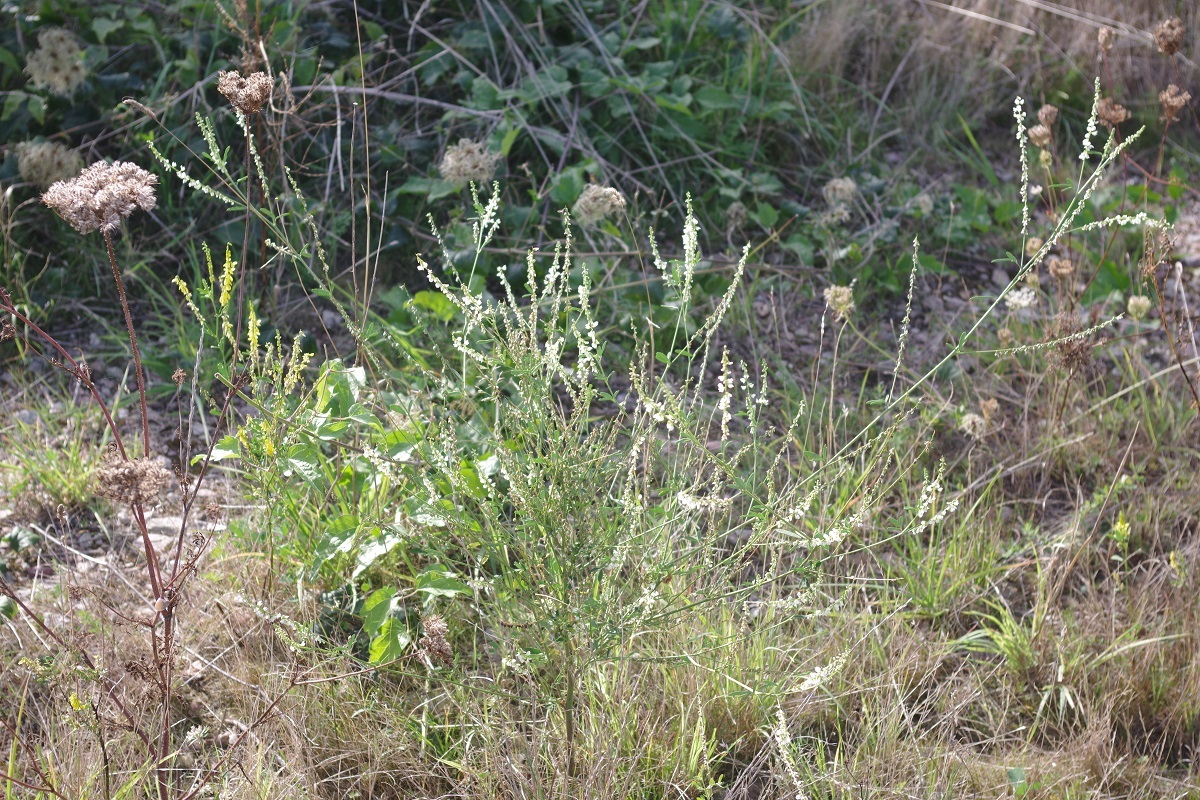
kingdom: Plantae
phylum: Tracheophyta
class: Magnoliopsida
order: Fabales
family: Fabaceae
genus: Melilotus
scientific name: Melilotus albus
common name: White melilot
